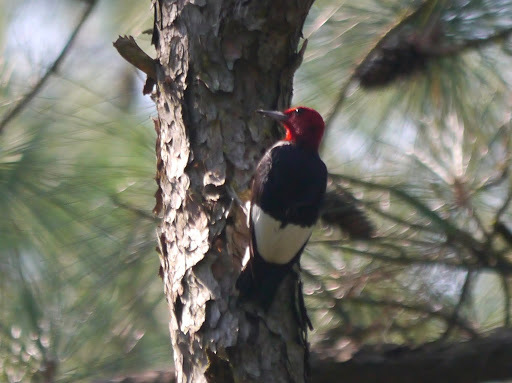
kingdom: Animalia
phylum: Chordata
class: Aves
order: Piciformes
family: Picidae
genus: Melanerpes
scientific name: Melanerpes erythrocephalus
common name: Red-headed woodpecker
